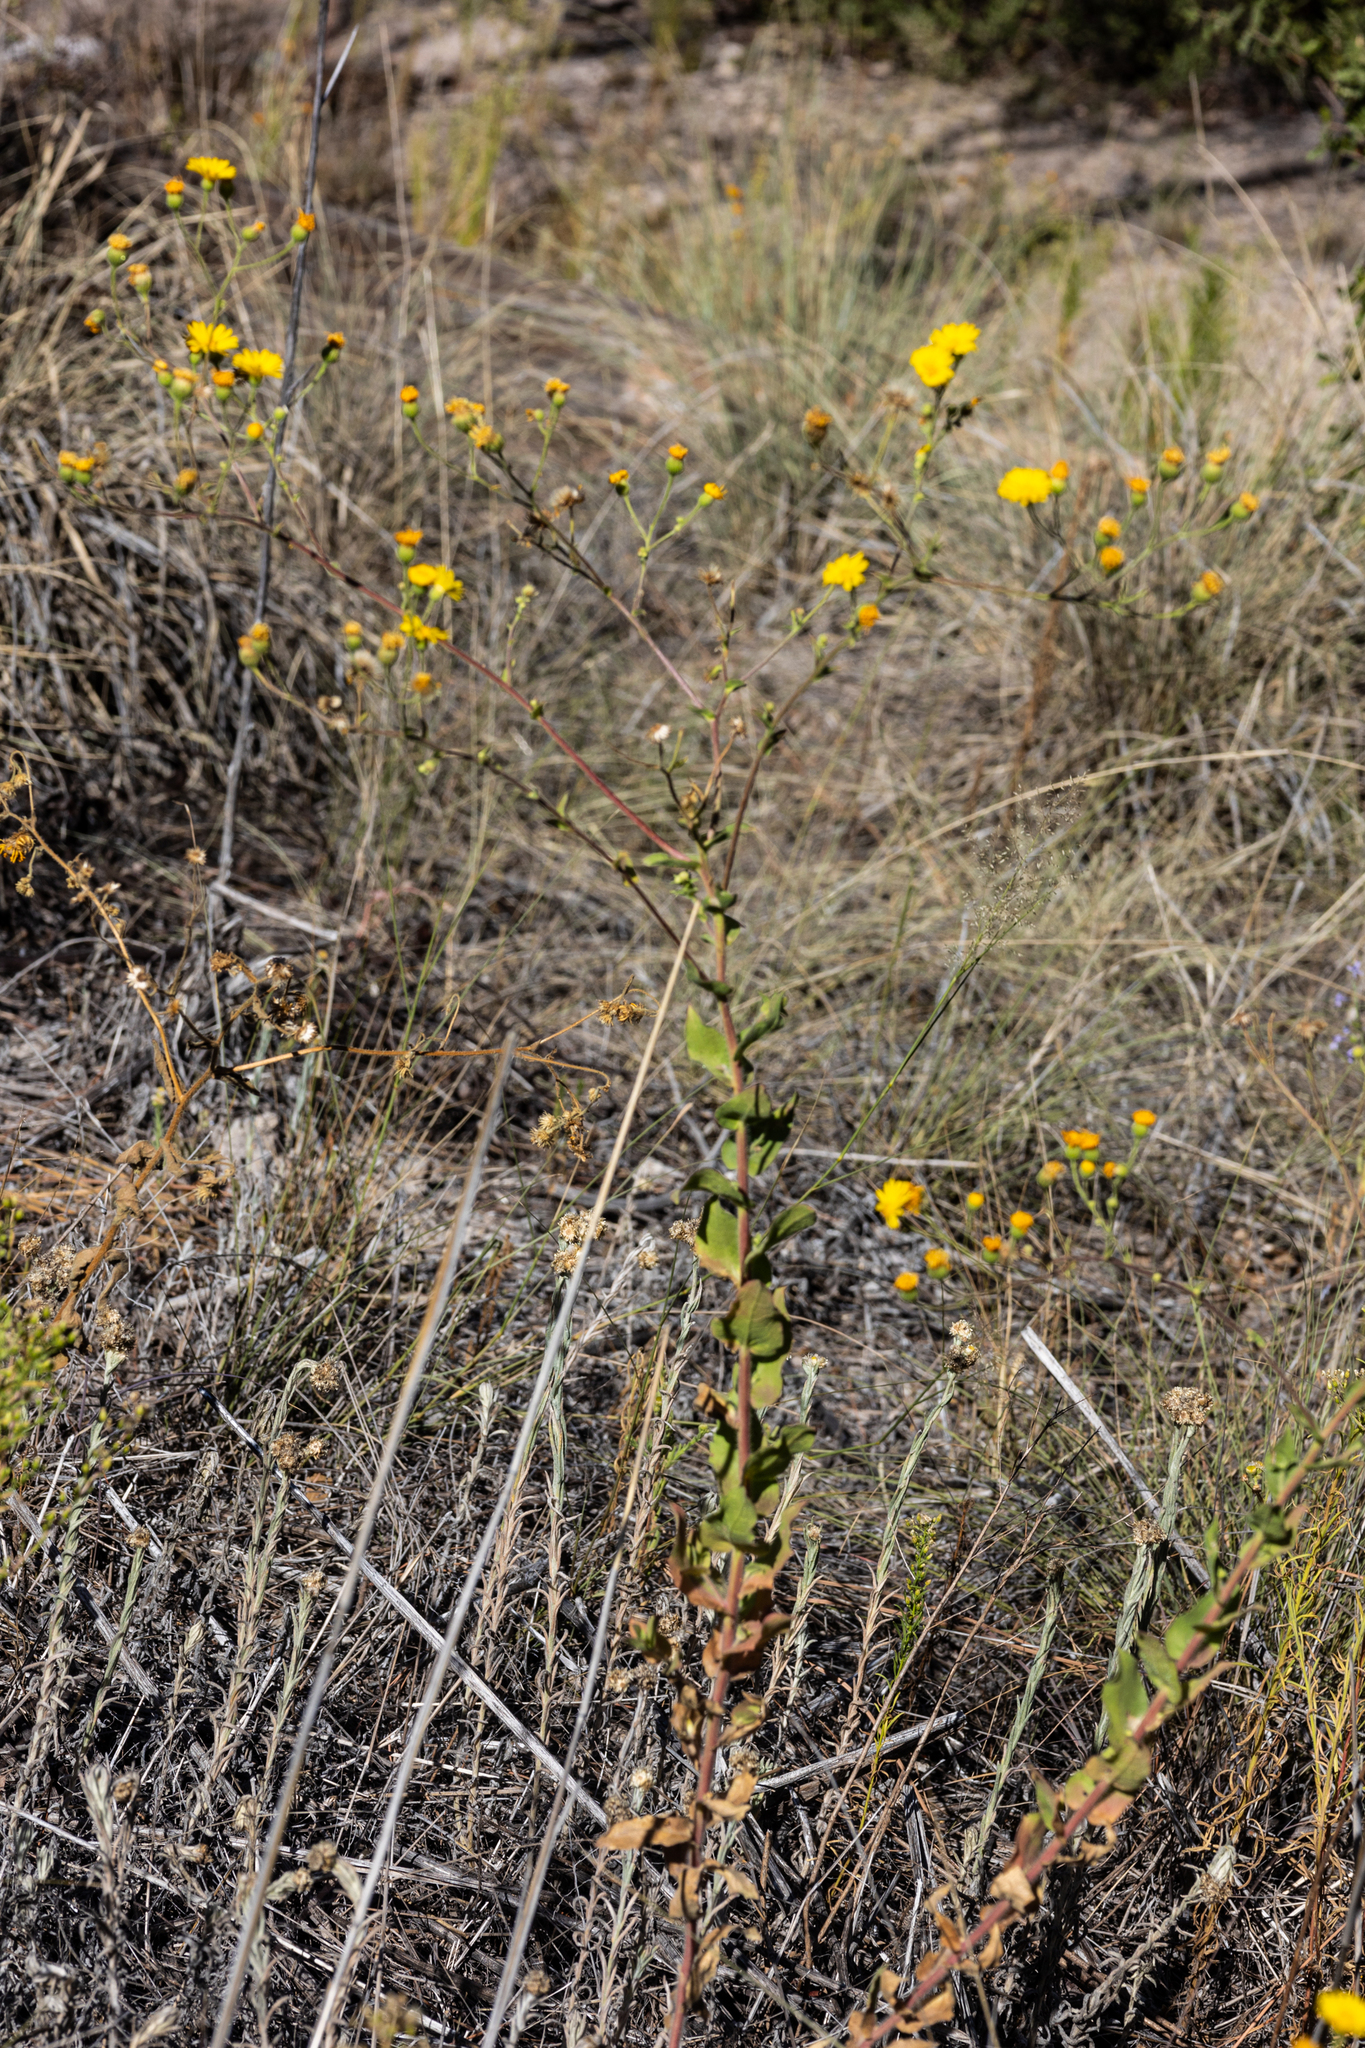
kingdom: Plantae
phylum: Tracheophyta
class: Magnoliopsida
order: Asterales
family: Asteraceae
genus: Heterotheca
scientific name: Heterotheca subaxillaris
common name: Camphorweed
